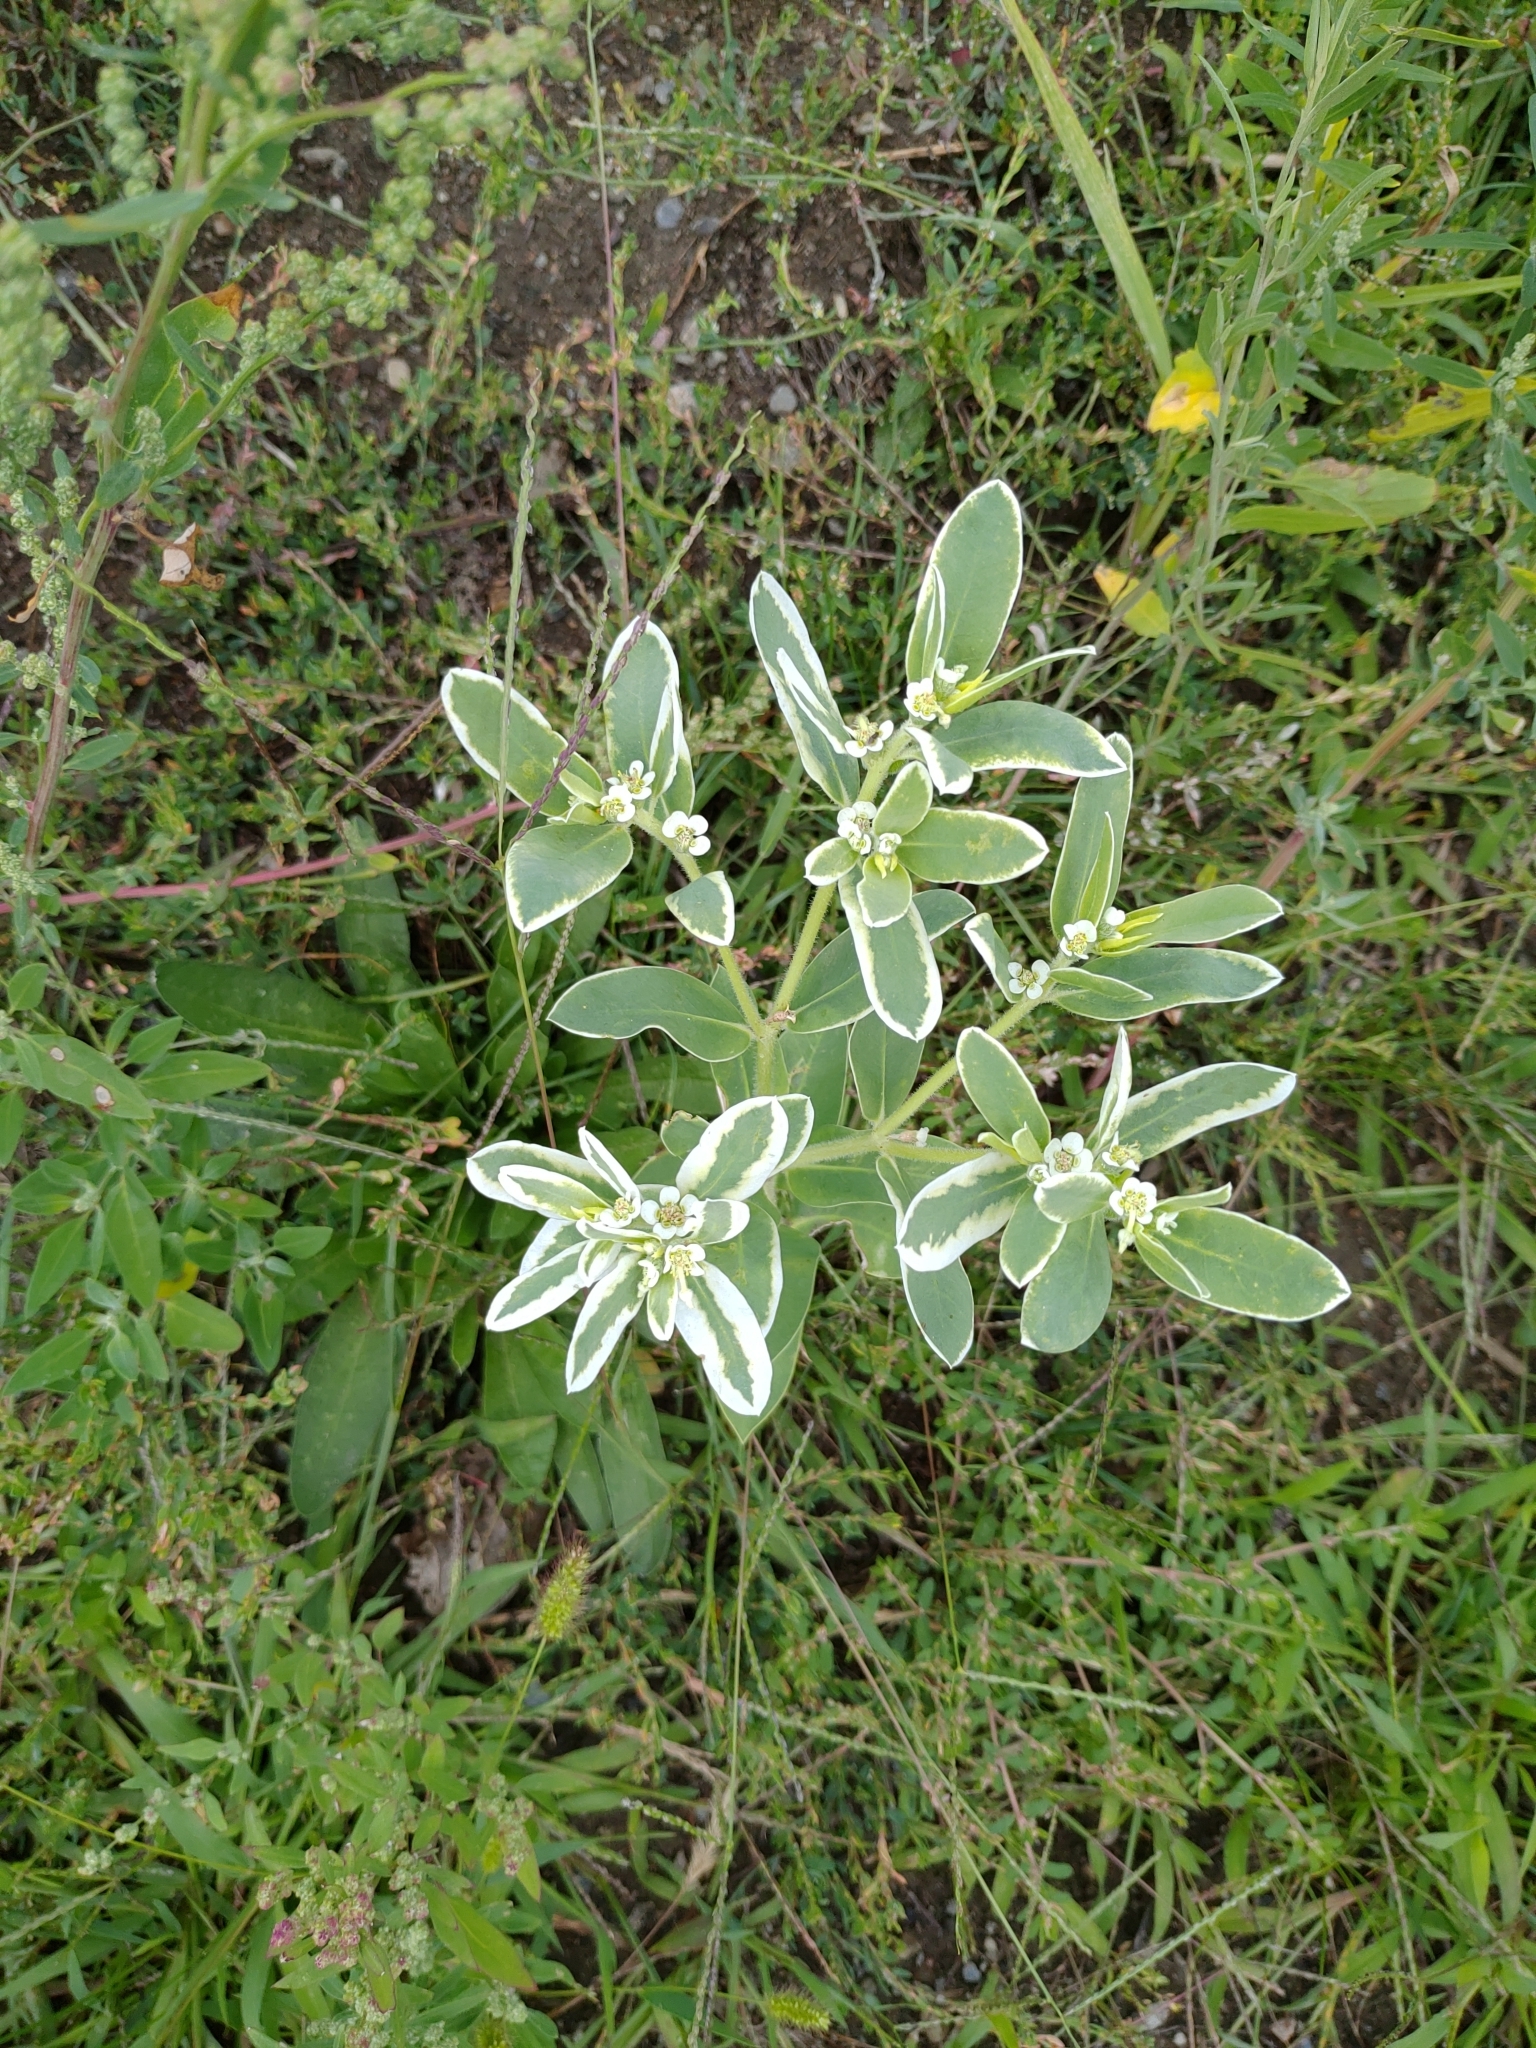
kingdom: Plantae
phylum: Tracheophyta
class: Magnoliopsida
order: Malpighiales
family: Euphorbiaceae
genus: Euphorbia
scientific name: Euphorbia marginata
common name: Ghostweed
